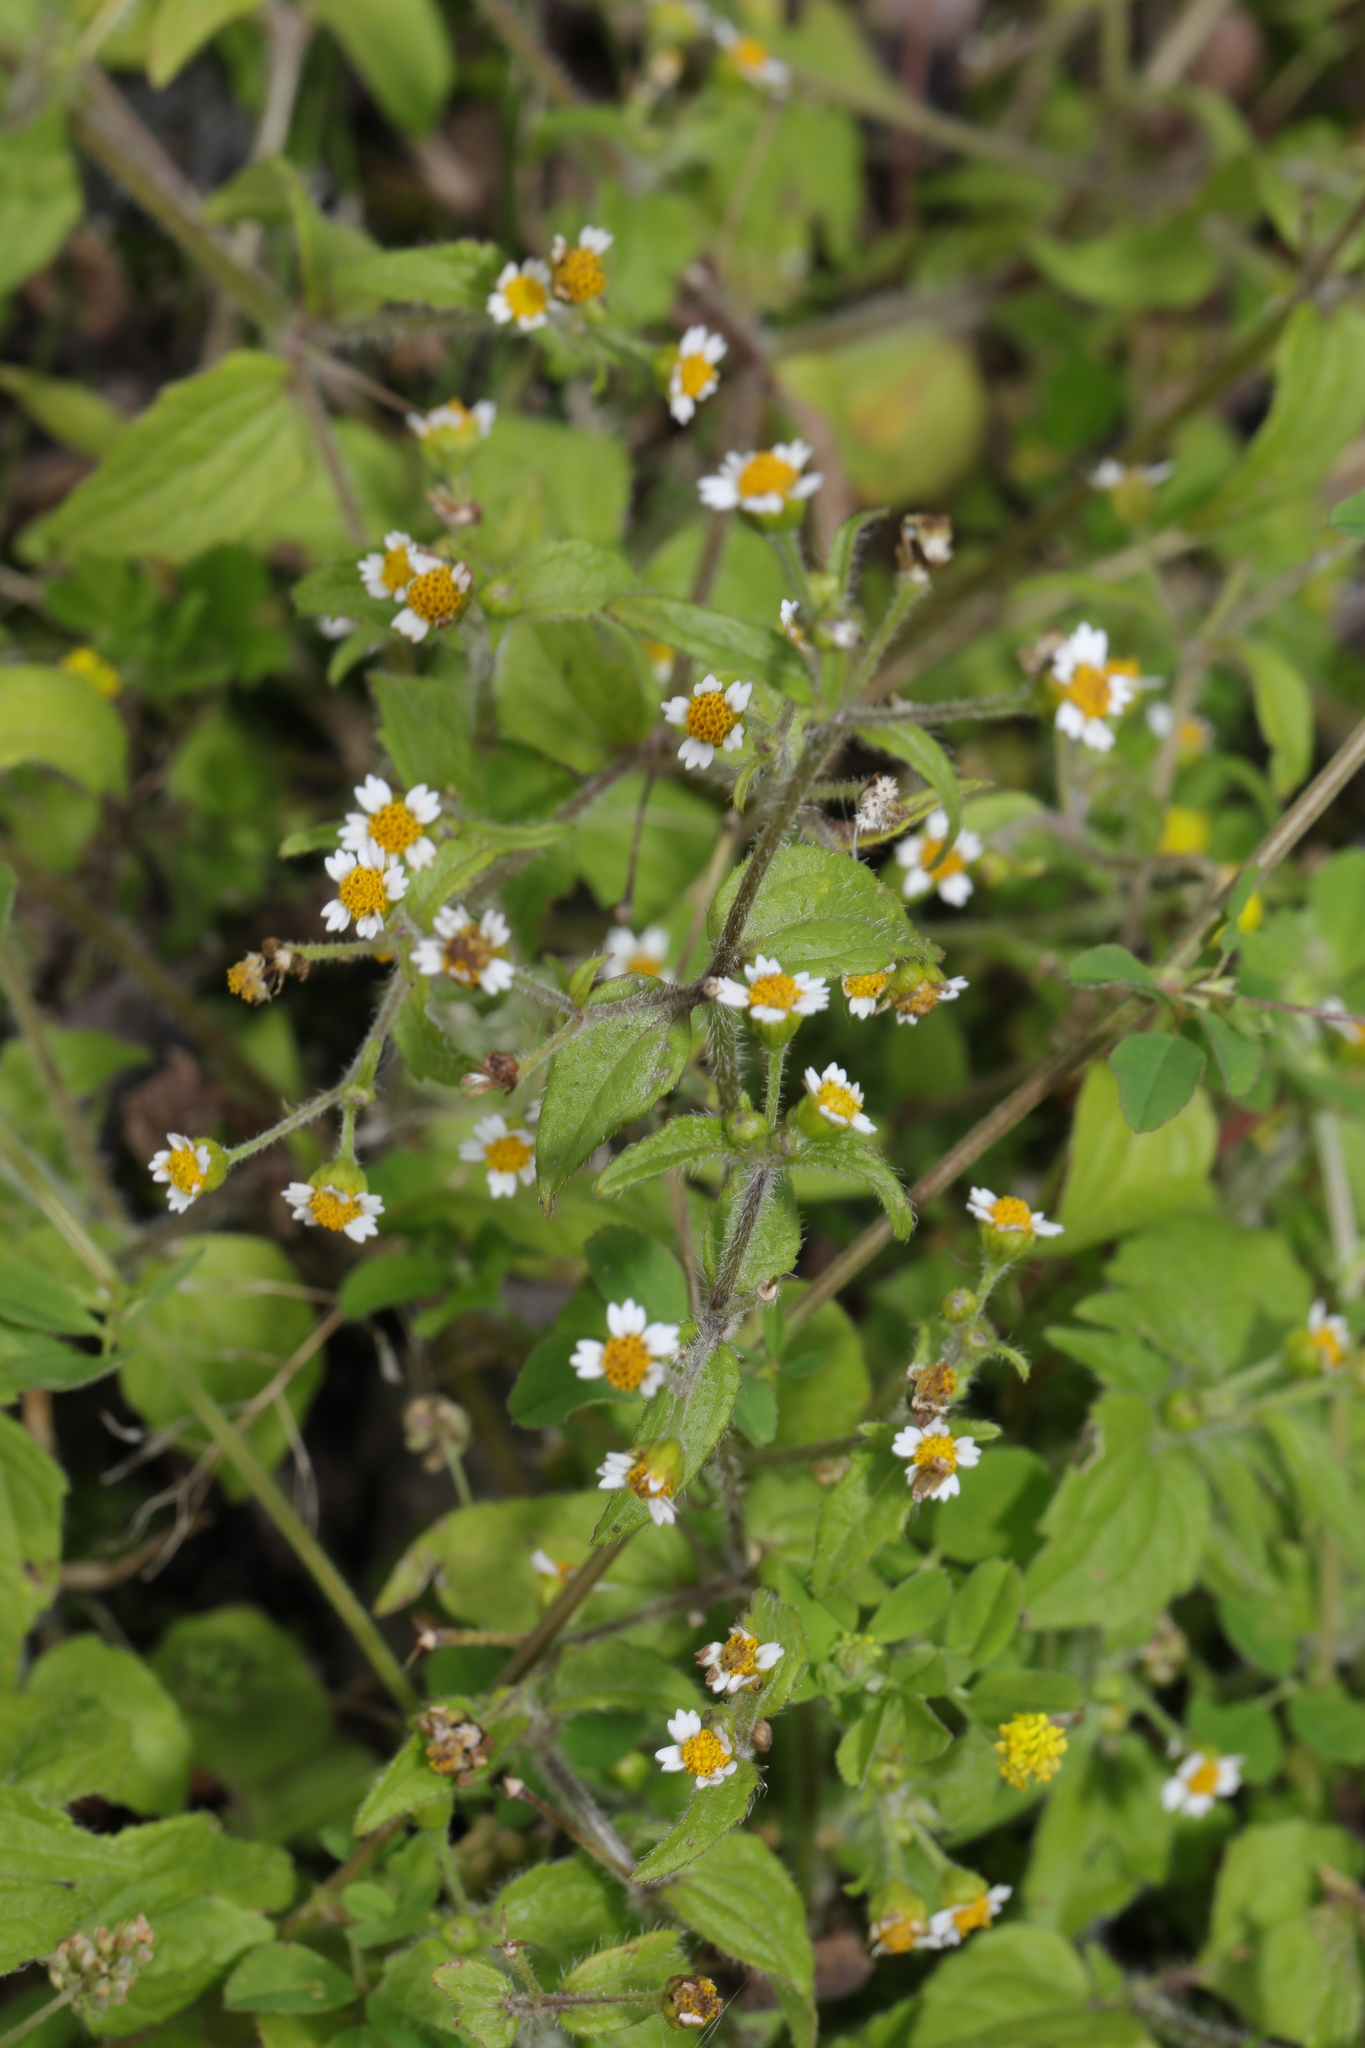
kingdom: Plantae
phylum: Tracheophyta
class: Magnoliopsida
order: Asterales
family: Asteraceae
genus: Galinsoga
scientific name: Galinsoga quadriradiata
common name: Shaggy soldier
